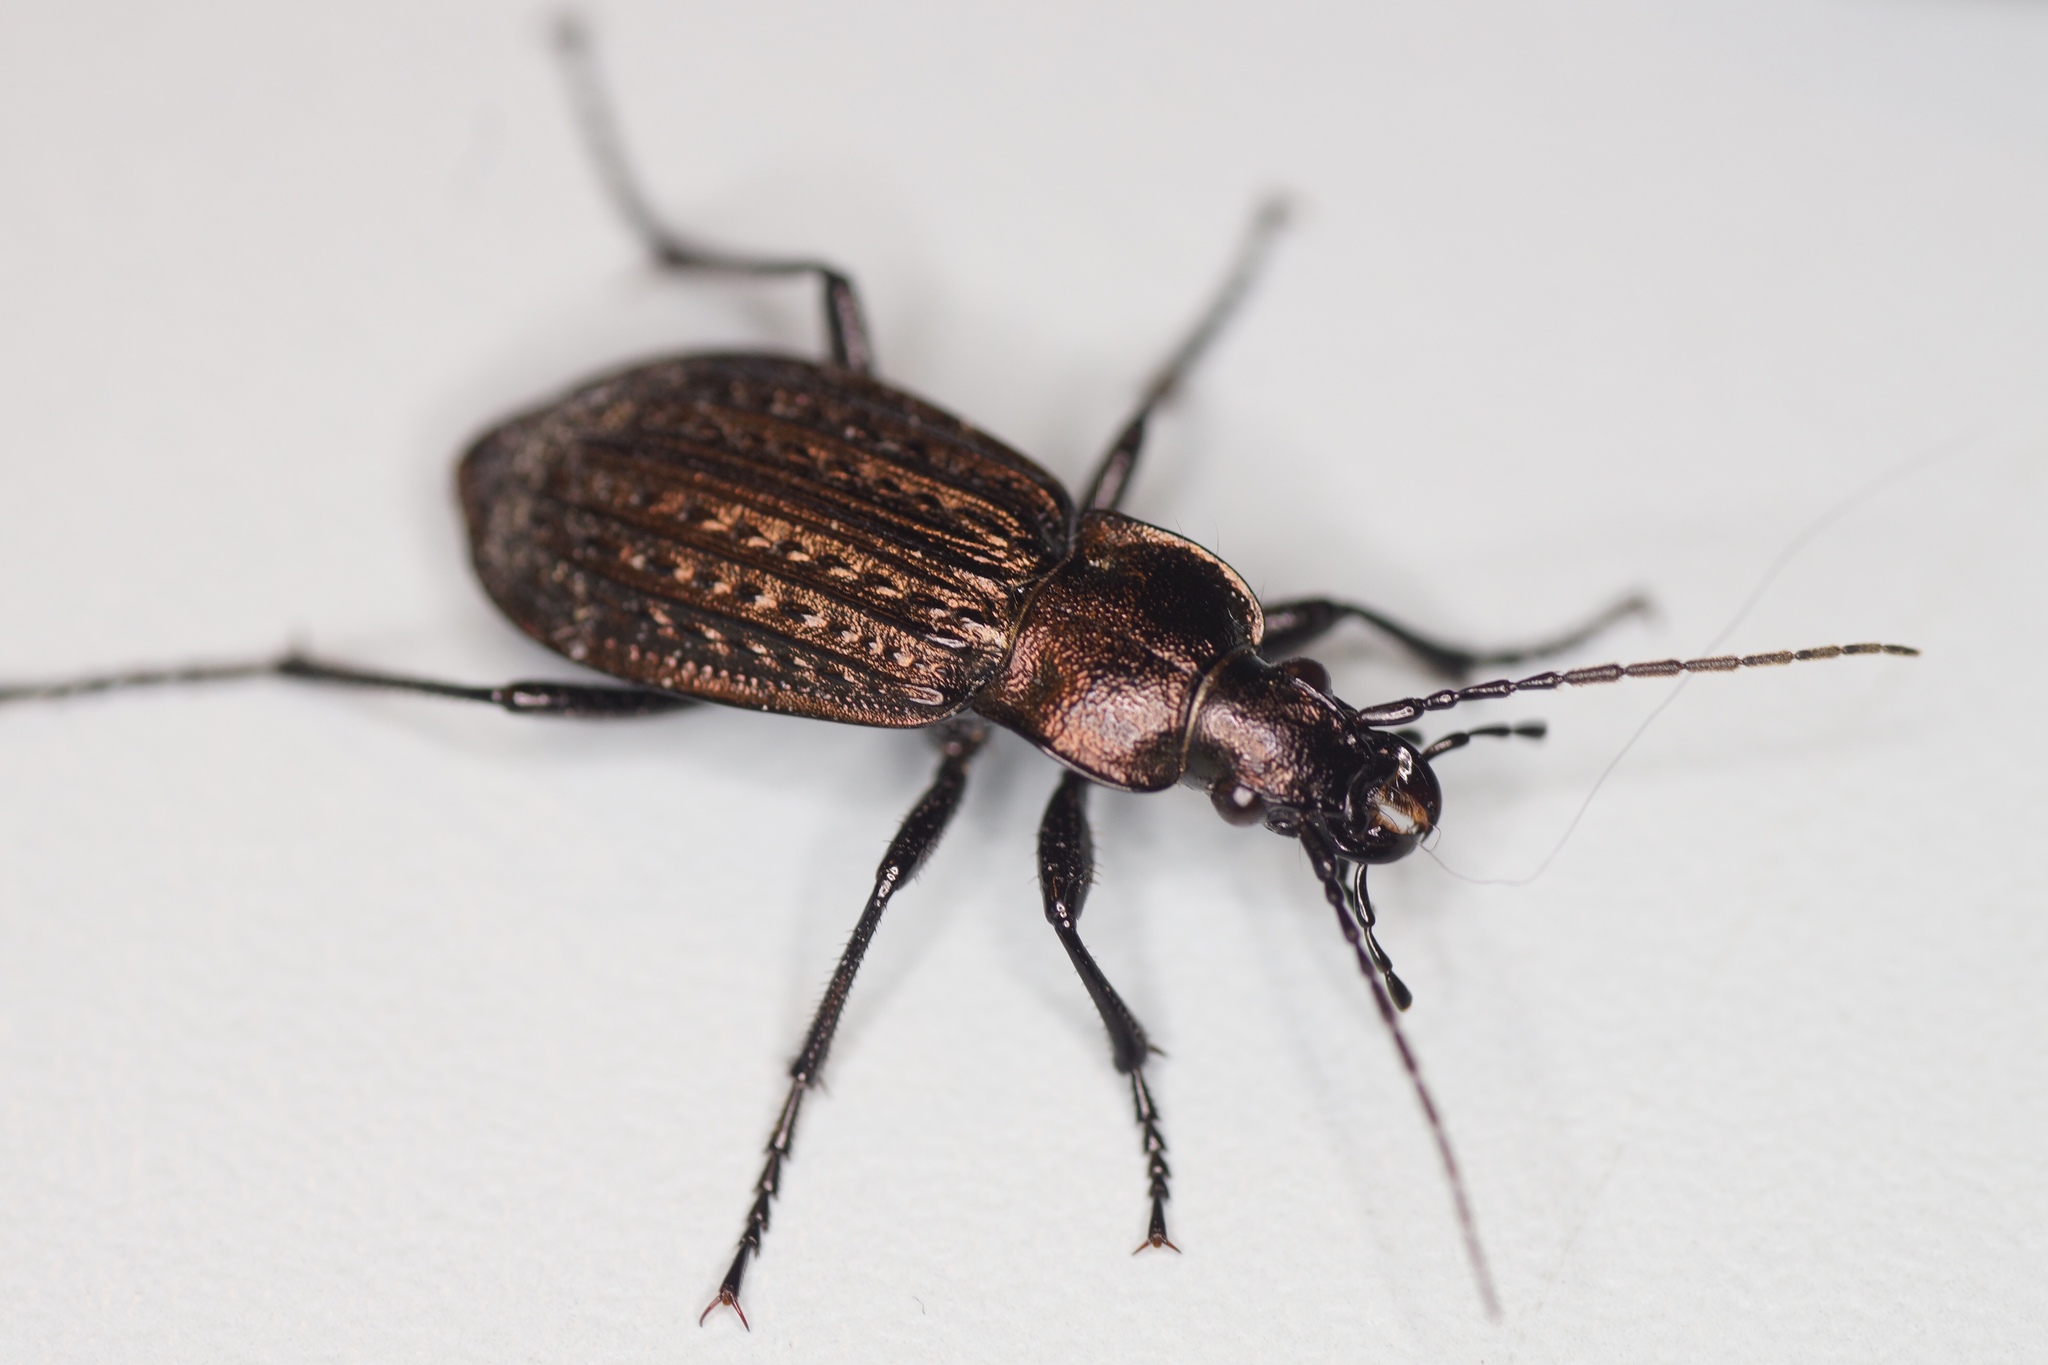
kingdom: Animalia
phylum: Arthropoda
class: Insecta
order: Coleoptera
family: Carabidae
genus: Carabus
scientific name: Carabus granulatus
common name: Granulate ground beetle
